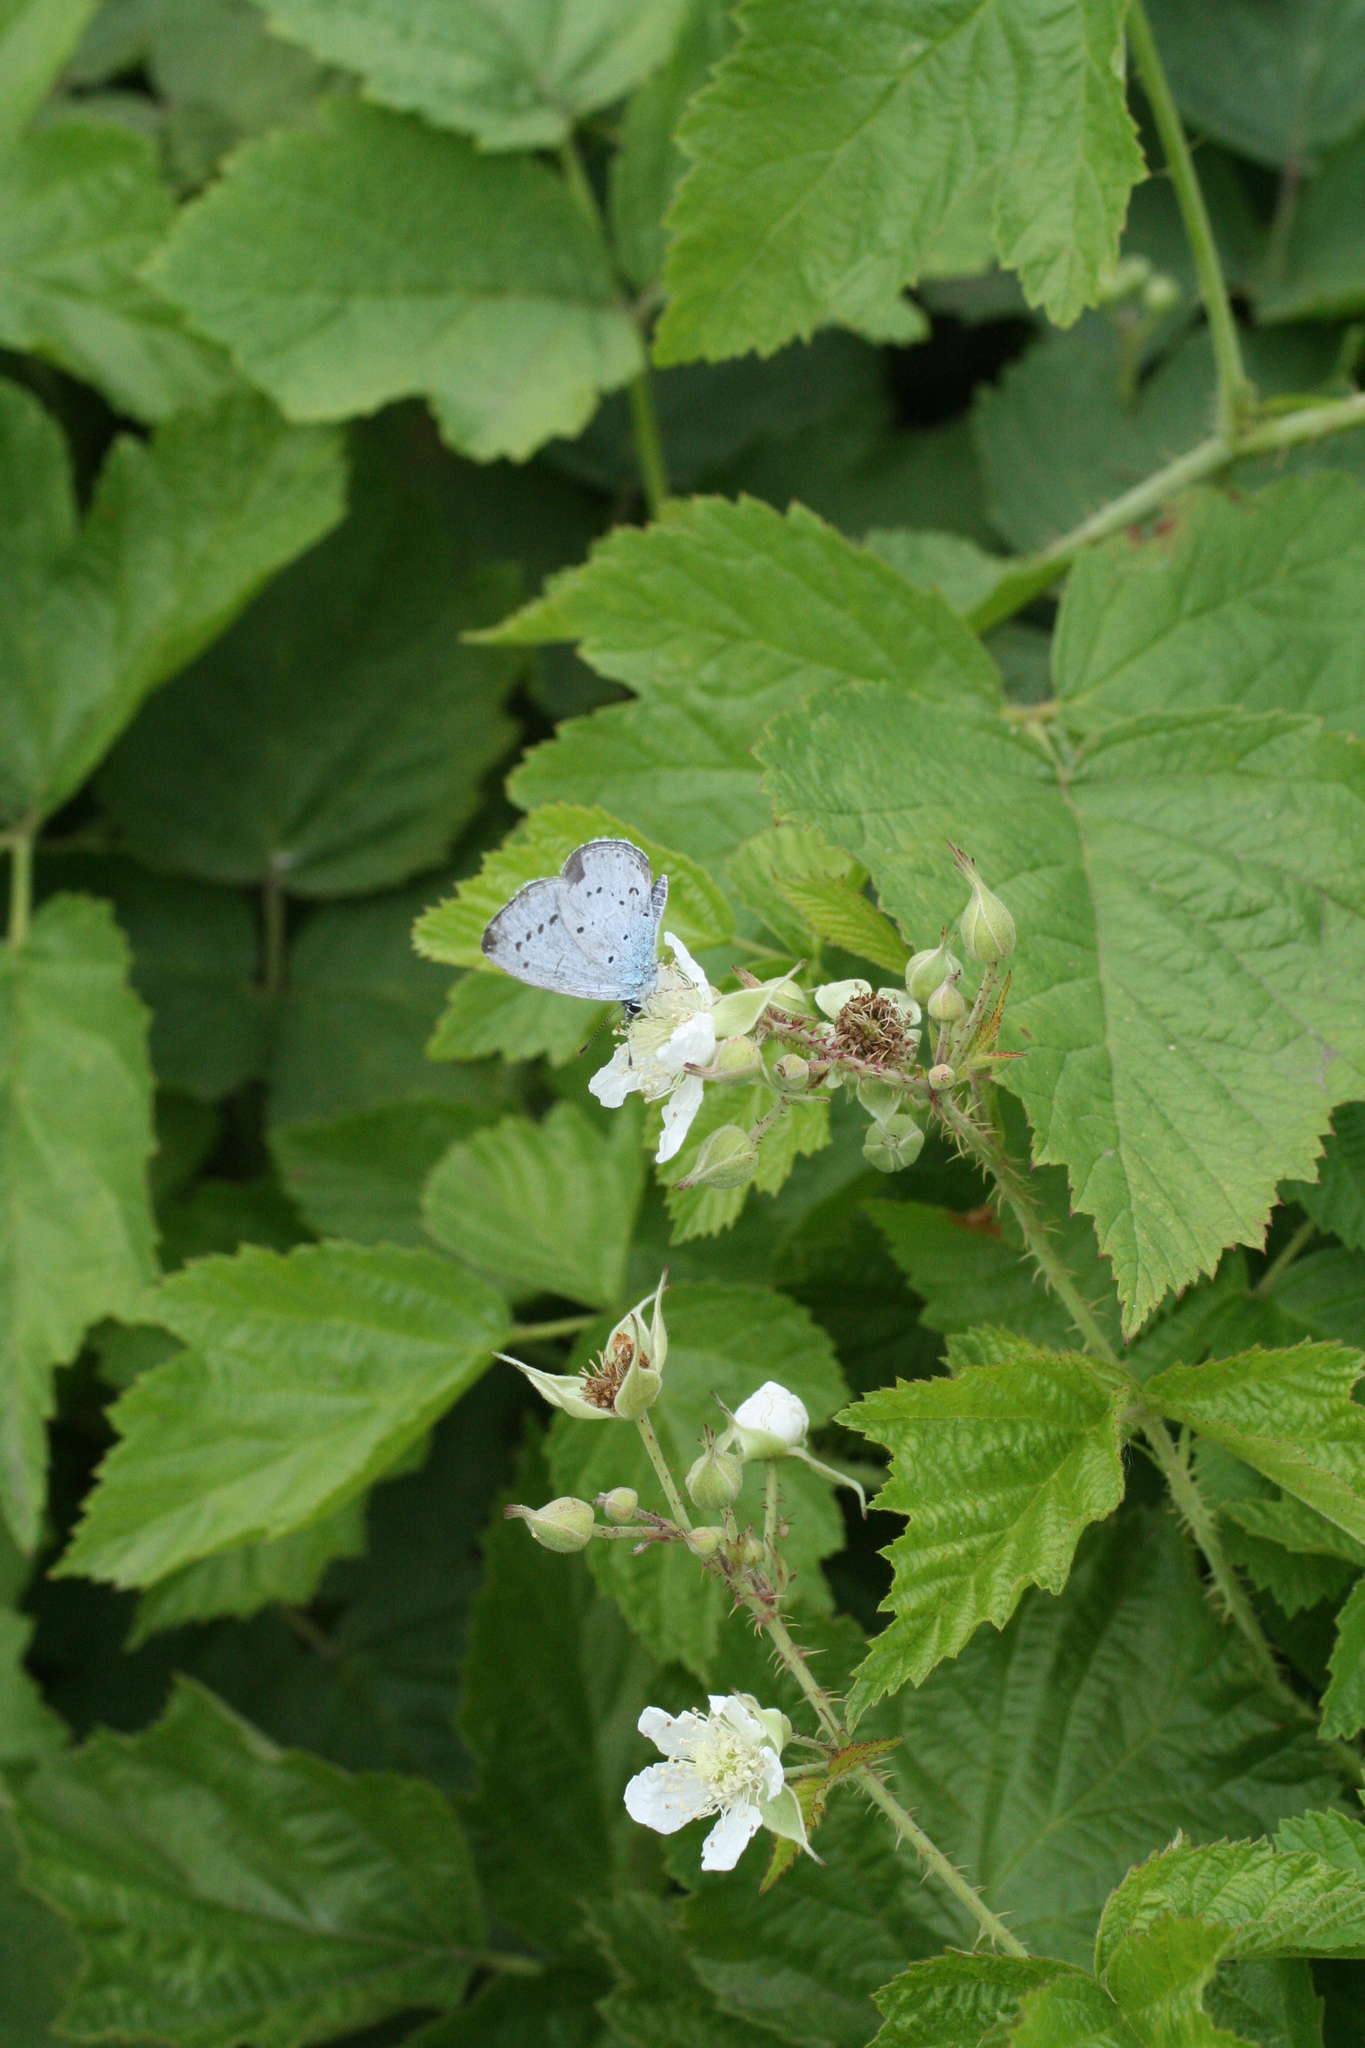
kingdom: Animalia
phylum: Arthropoda
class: Insecta
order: Lepidoptera
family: Lycaenidae
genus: Celastrina
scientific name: Celastrina argiolus
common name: Holly blue
